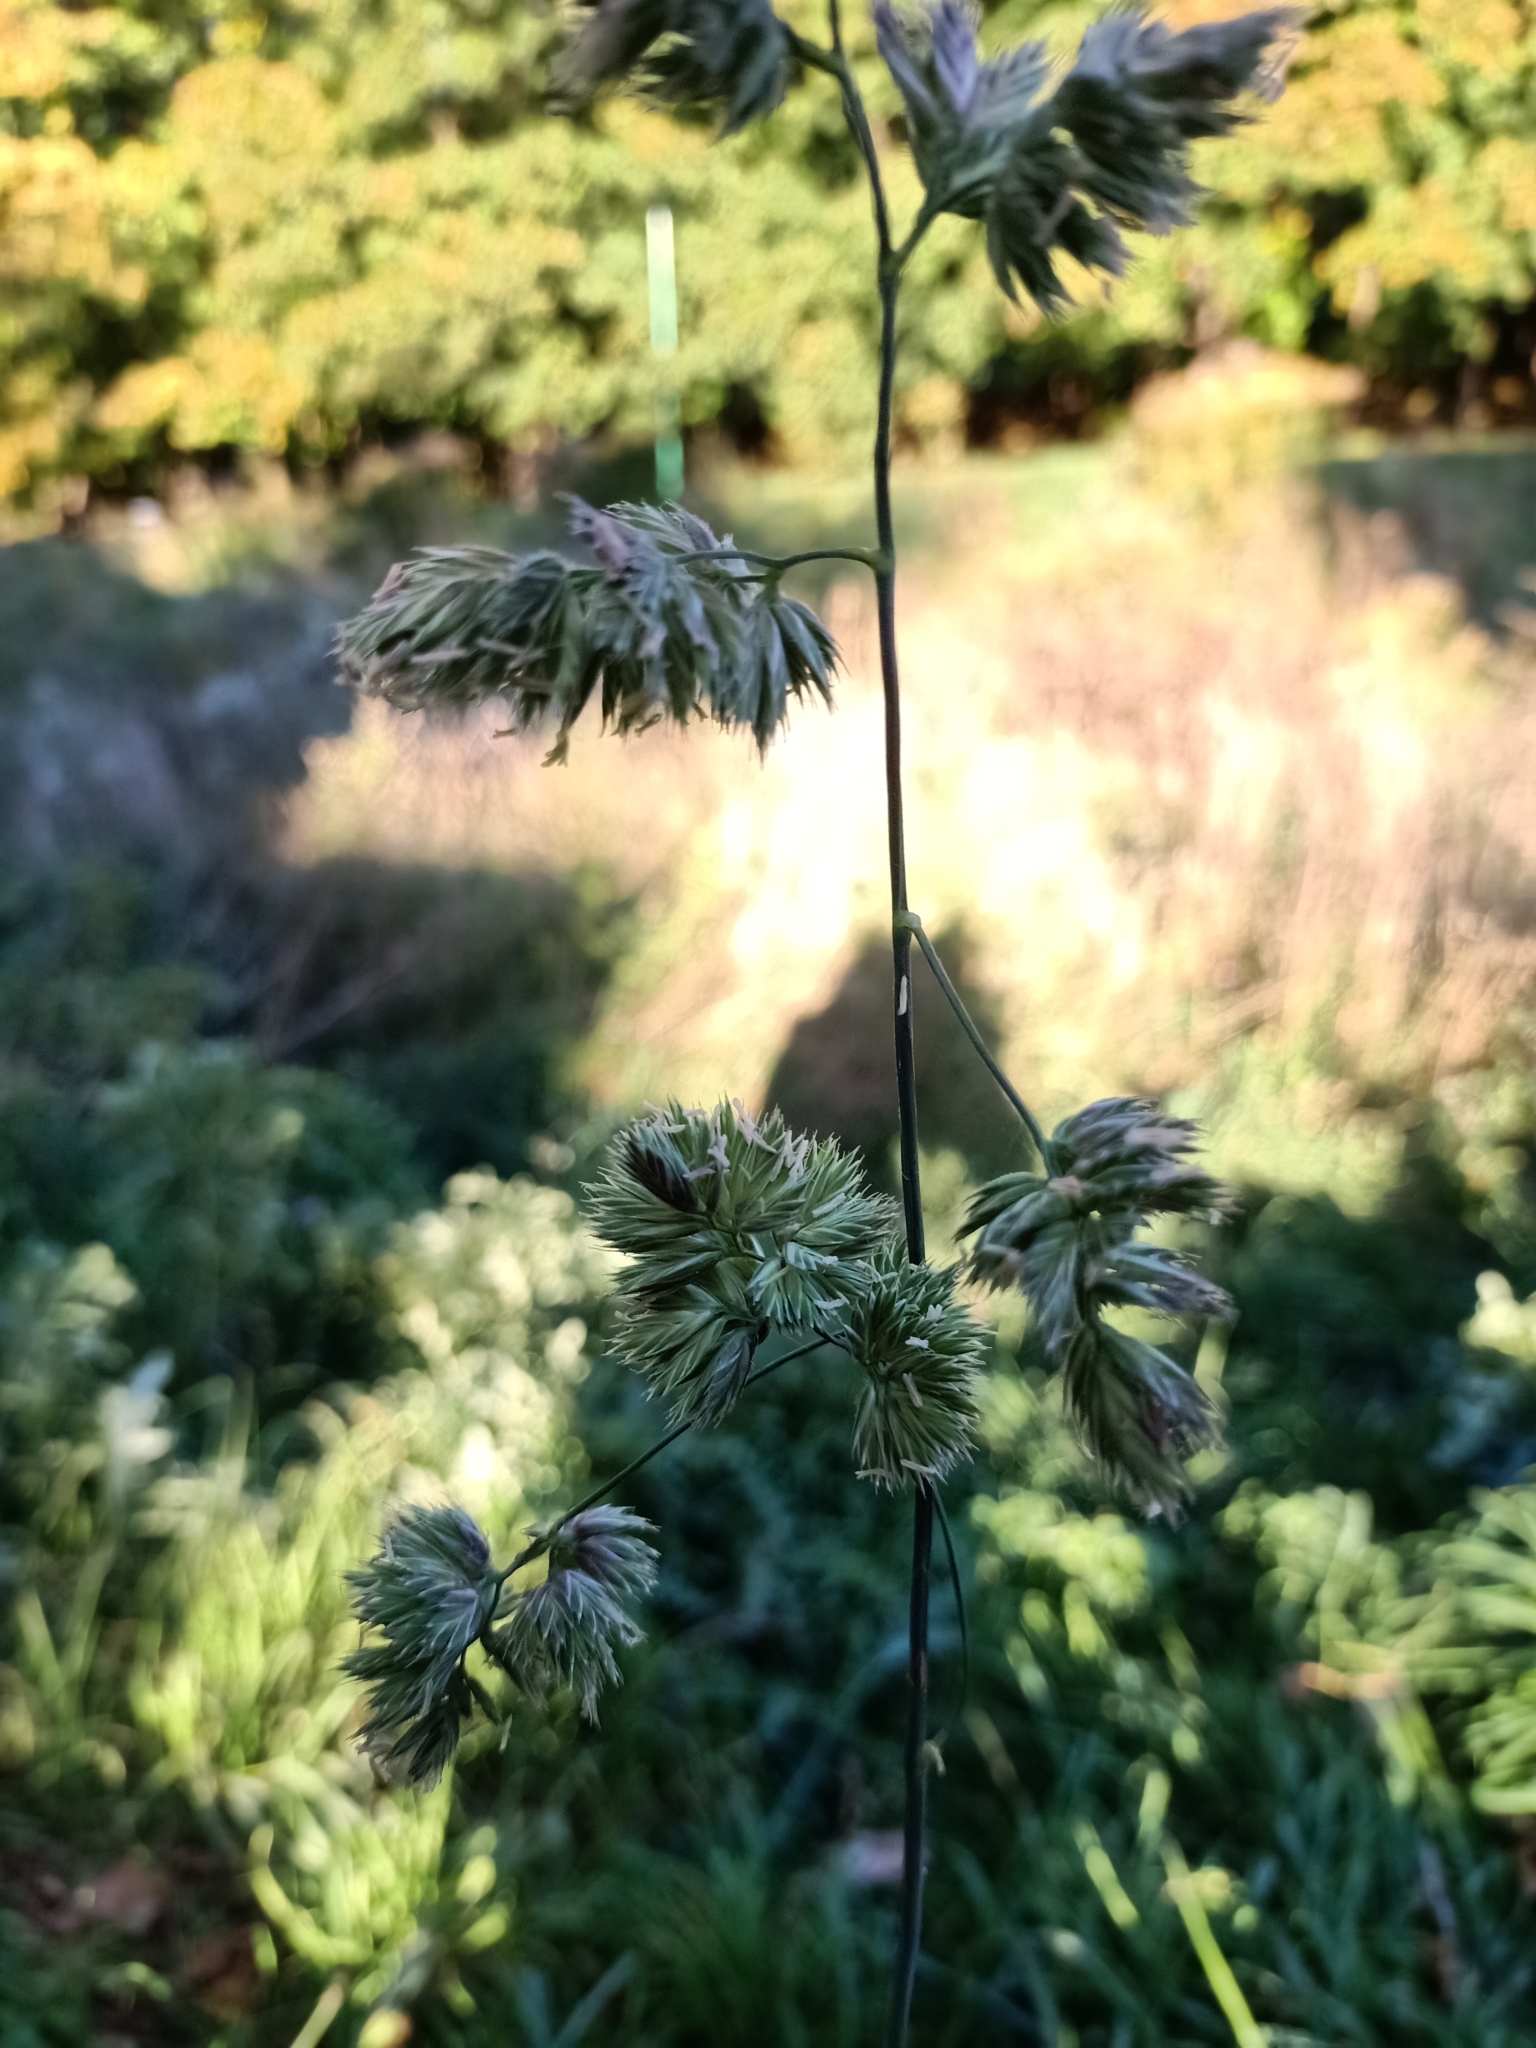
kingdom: Plantae
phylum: Tracheophyta
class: Liliopsida
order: Poales
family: Poaceae
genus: Dactylis
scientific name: Dactylis glomerata
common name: Orchardgrass
